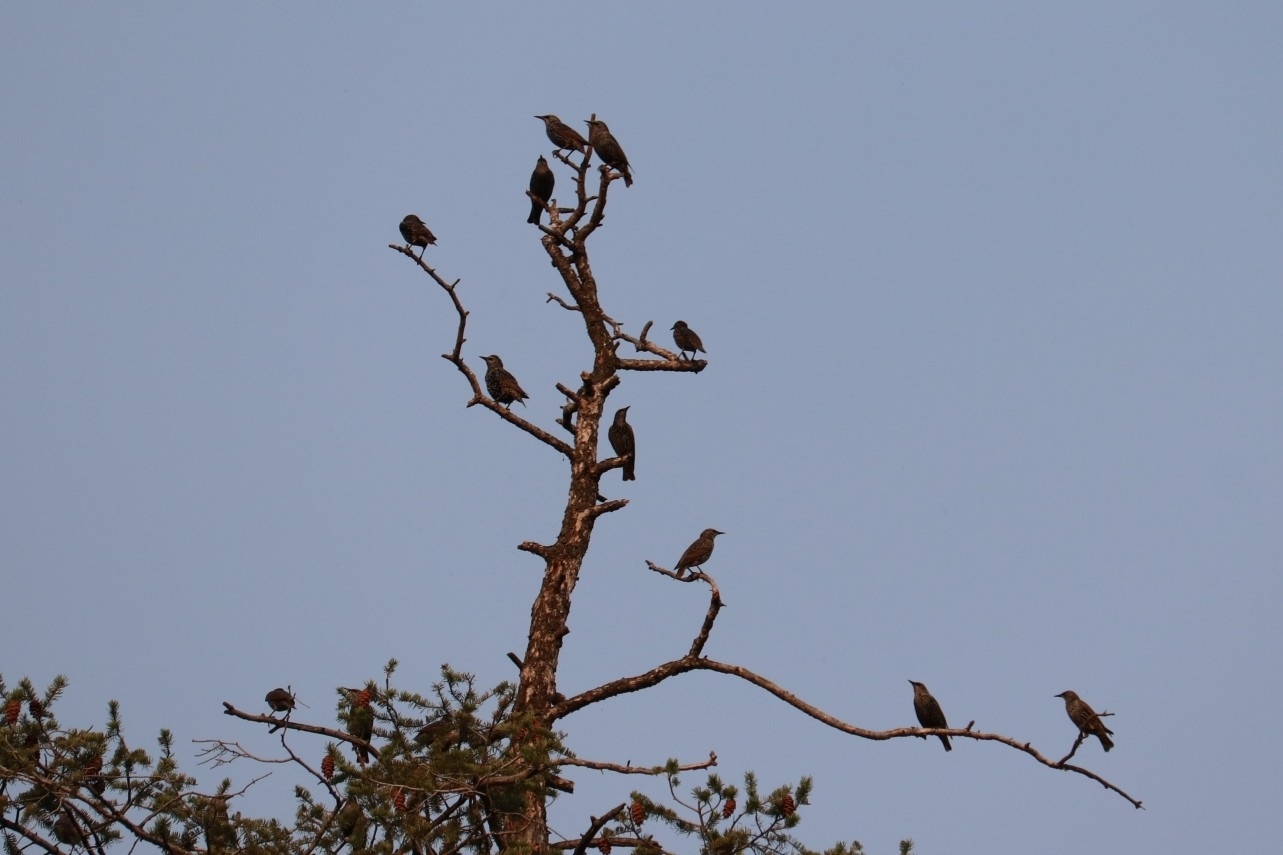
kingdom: Animalia
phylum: Chordata
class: Aves
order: Passeriformes
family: Sturnidae
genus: Sturnus
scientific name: Sturnus vulgaris
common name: Common starling
